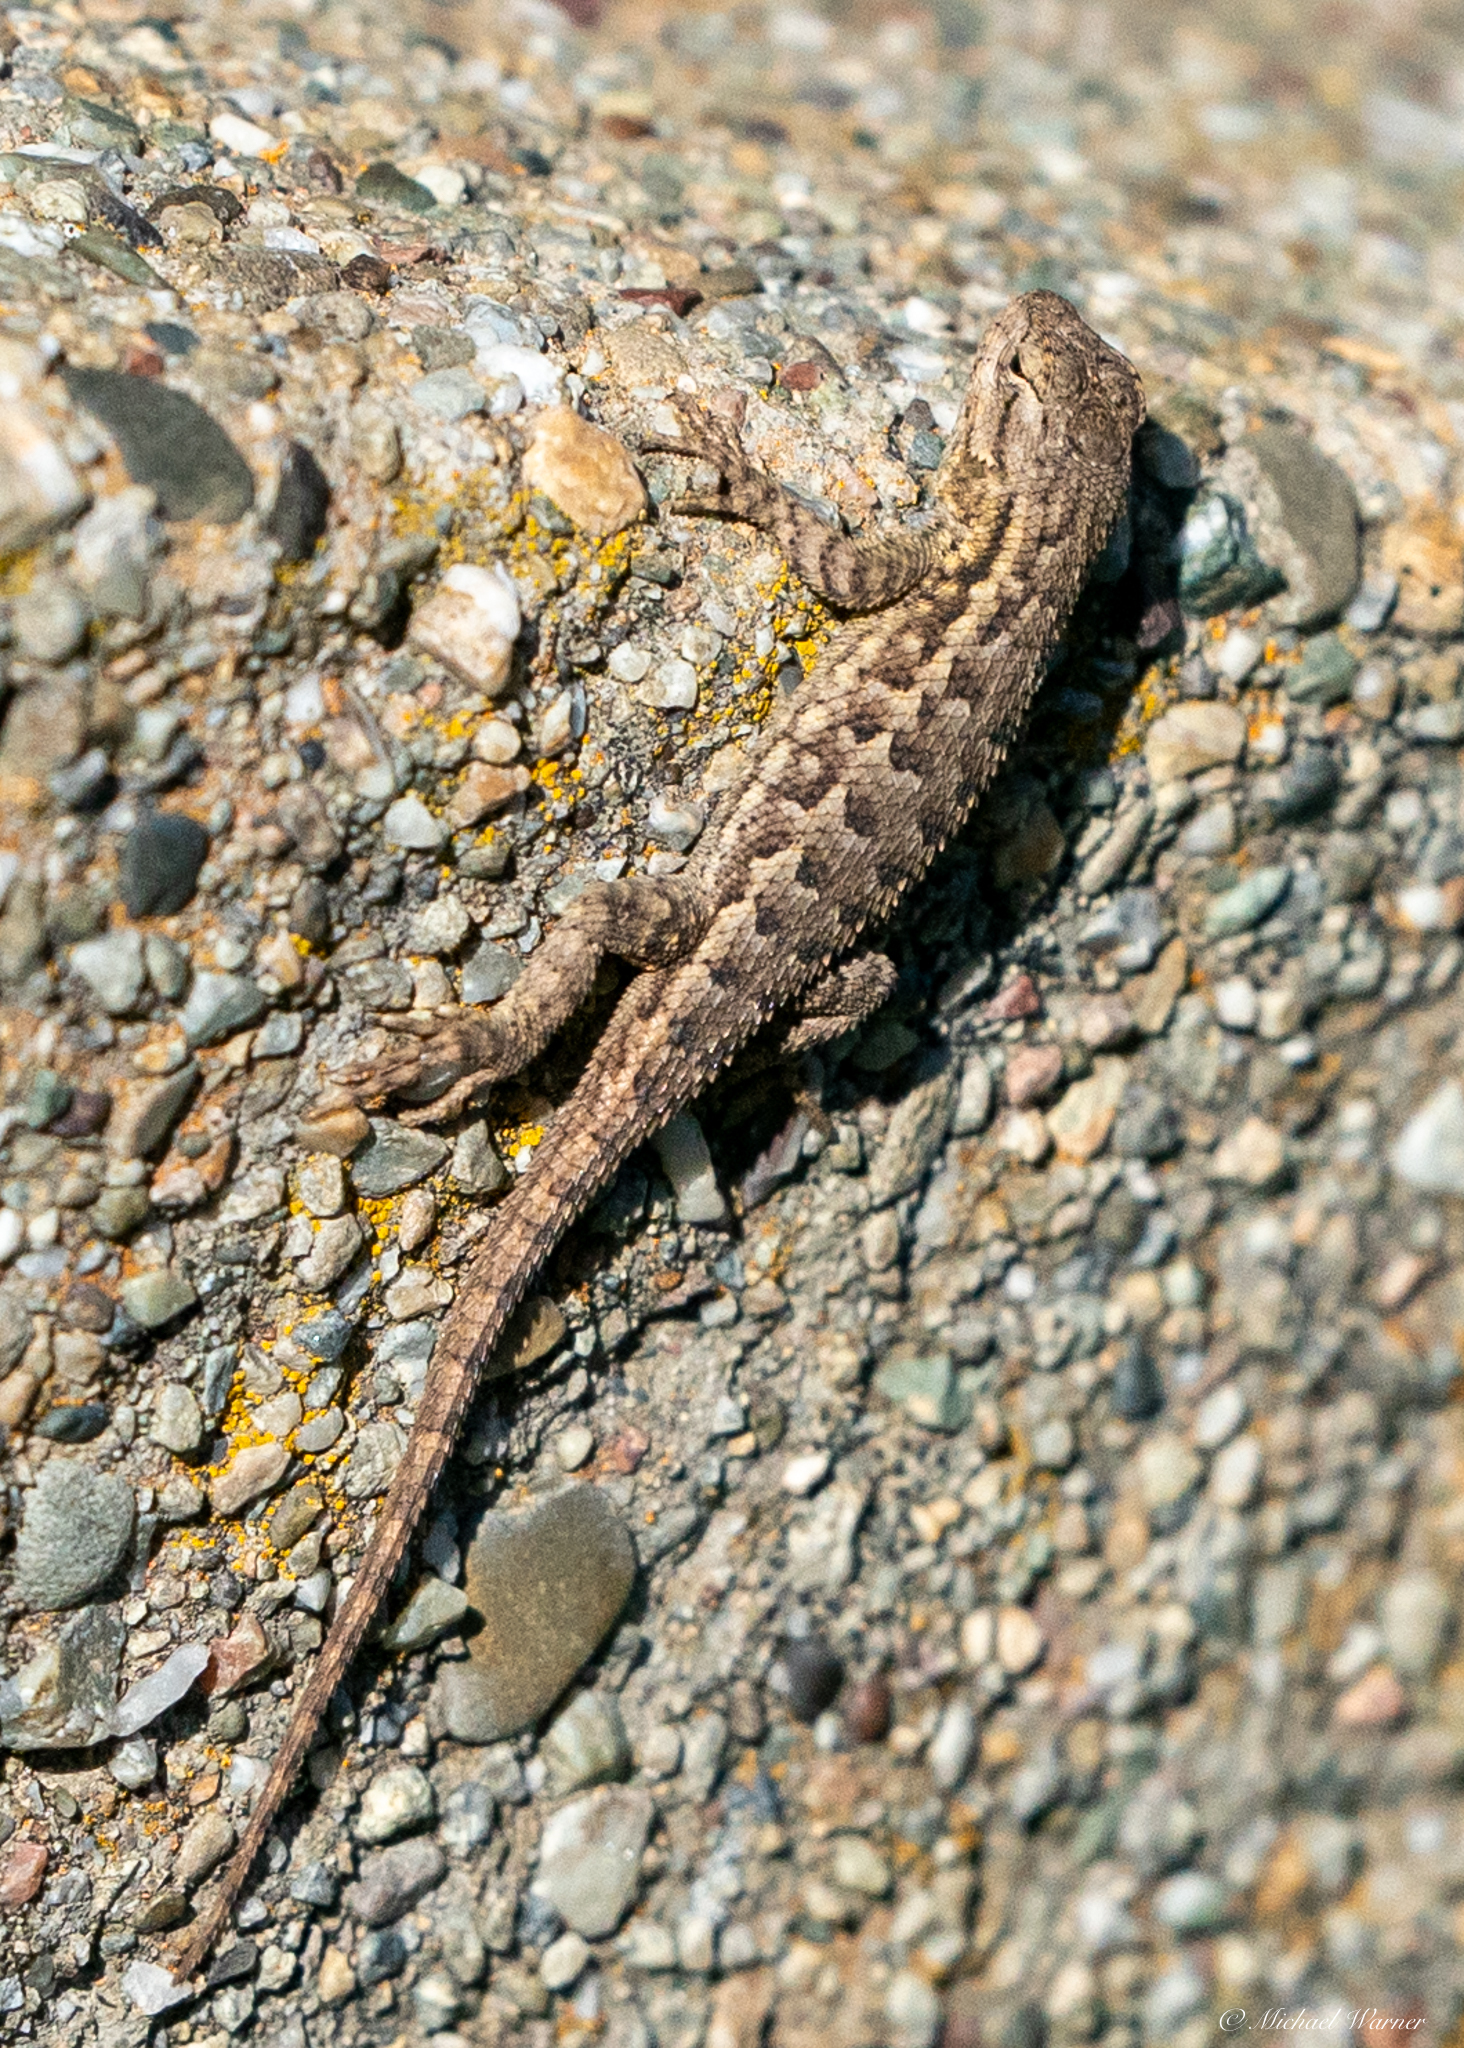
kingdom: Animalia
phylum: Chordata
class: Squamata
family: Phrynosomatidae
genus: Sceloporus
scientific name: Sceloporus occidentalis
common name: Western fence lizard
